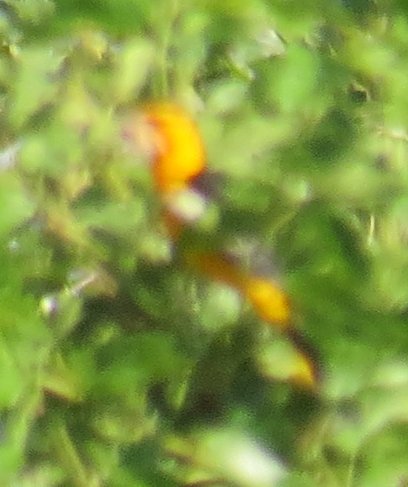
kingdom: Animalia
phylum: Chordata
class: Aves
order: Passeriformes
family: Icteridae
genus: Icterus
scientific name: Icterus bullockii
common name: Bullock's oriole
